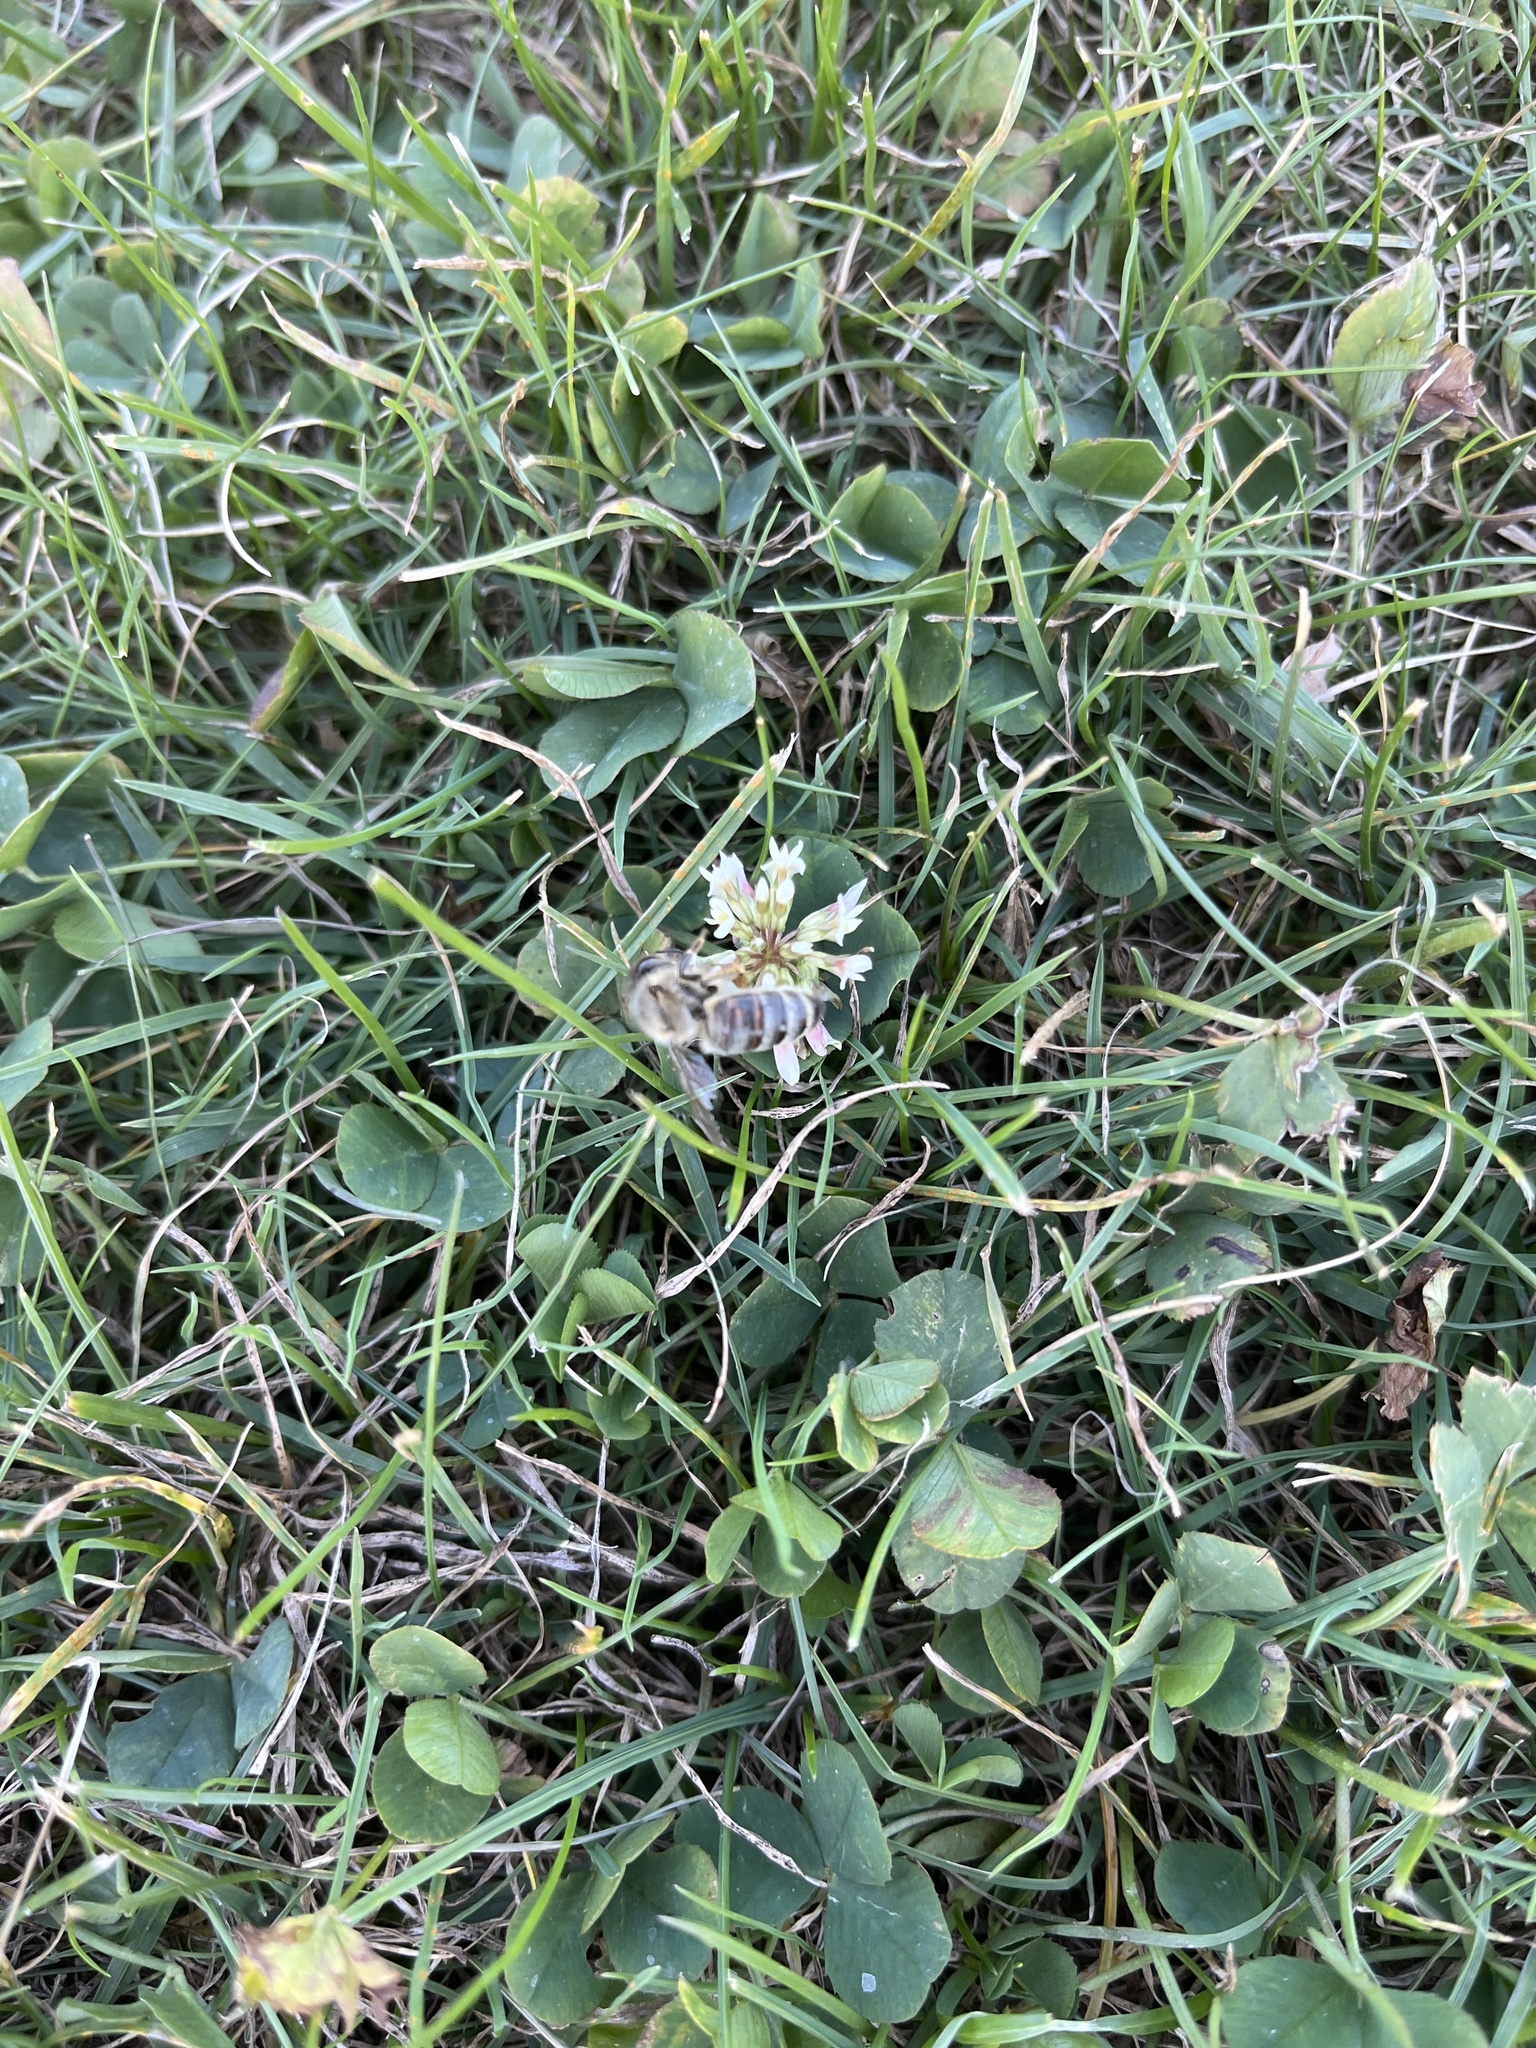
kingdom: Animalia
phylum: Arthropoda
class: Insecta
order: Hymenoptera
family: Apidae
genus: Apis
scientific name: Apis mellifera
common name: Honey bee
